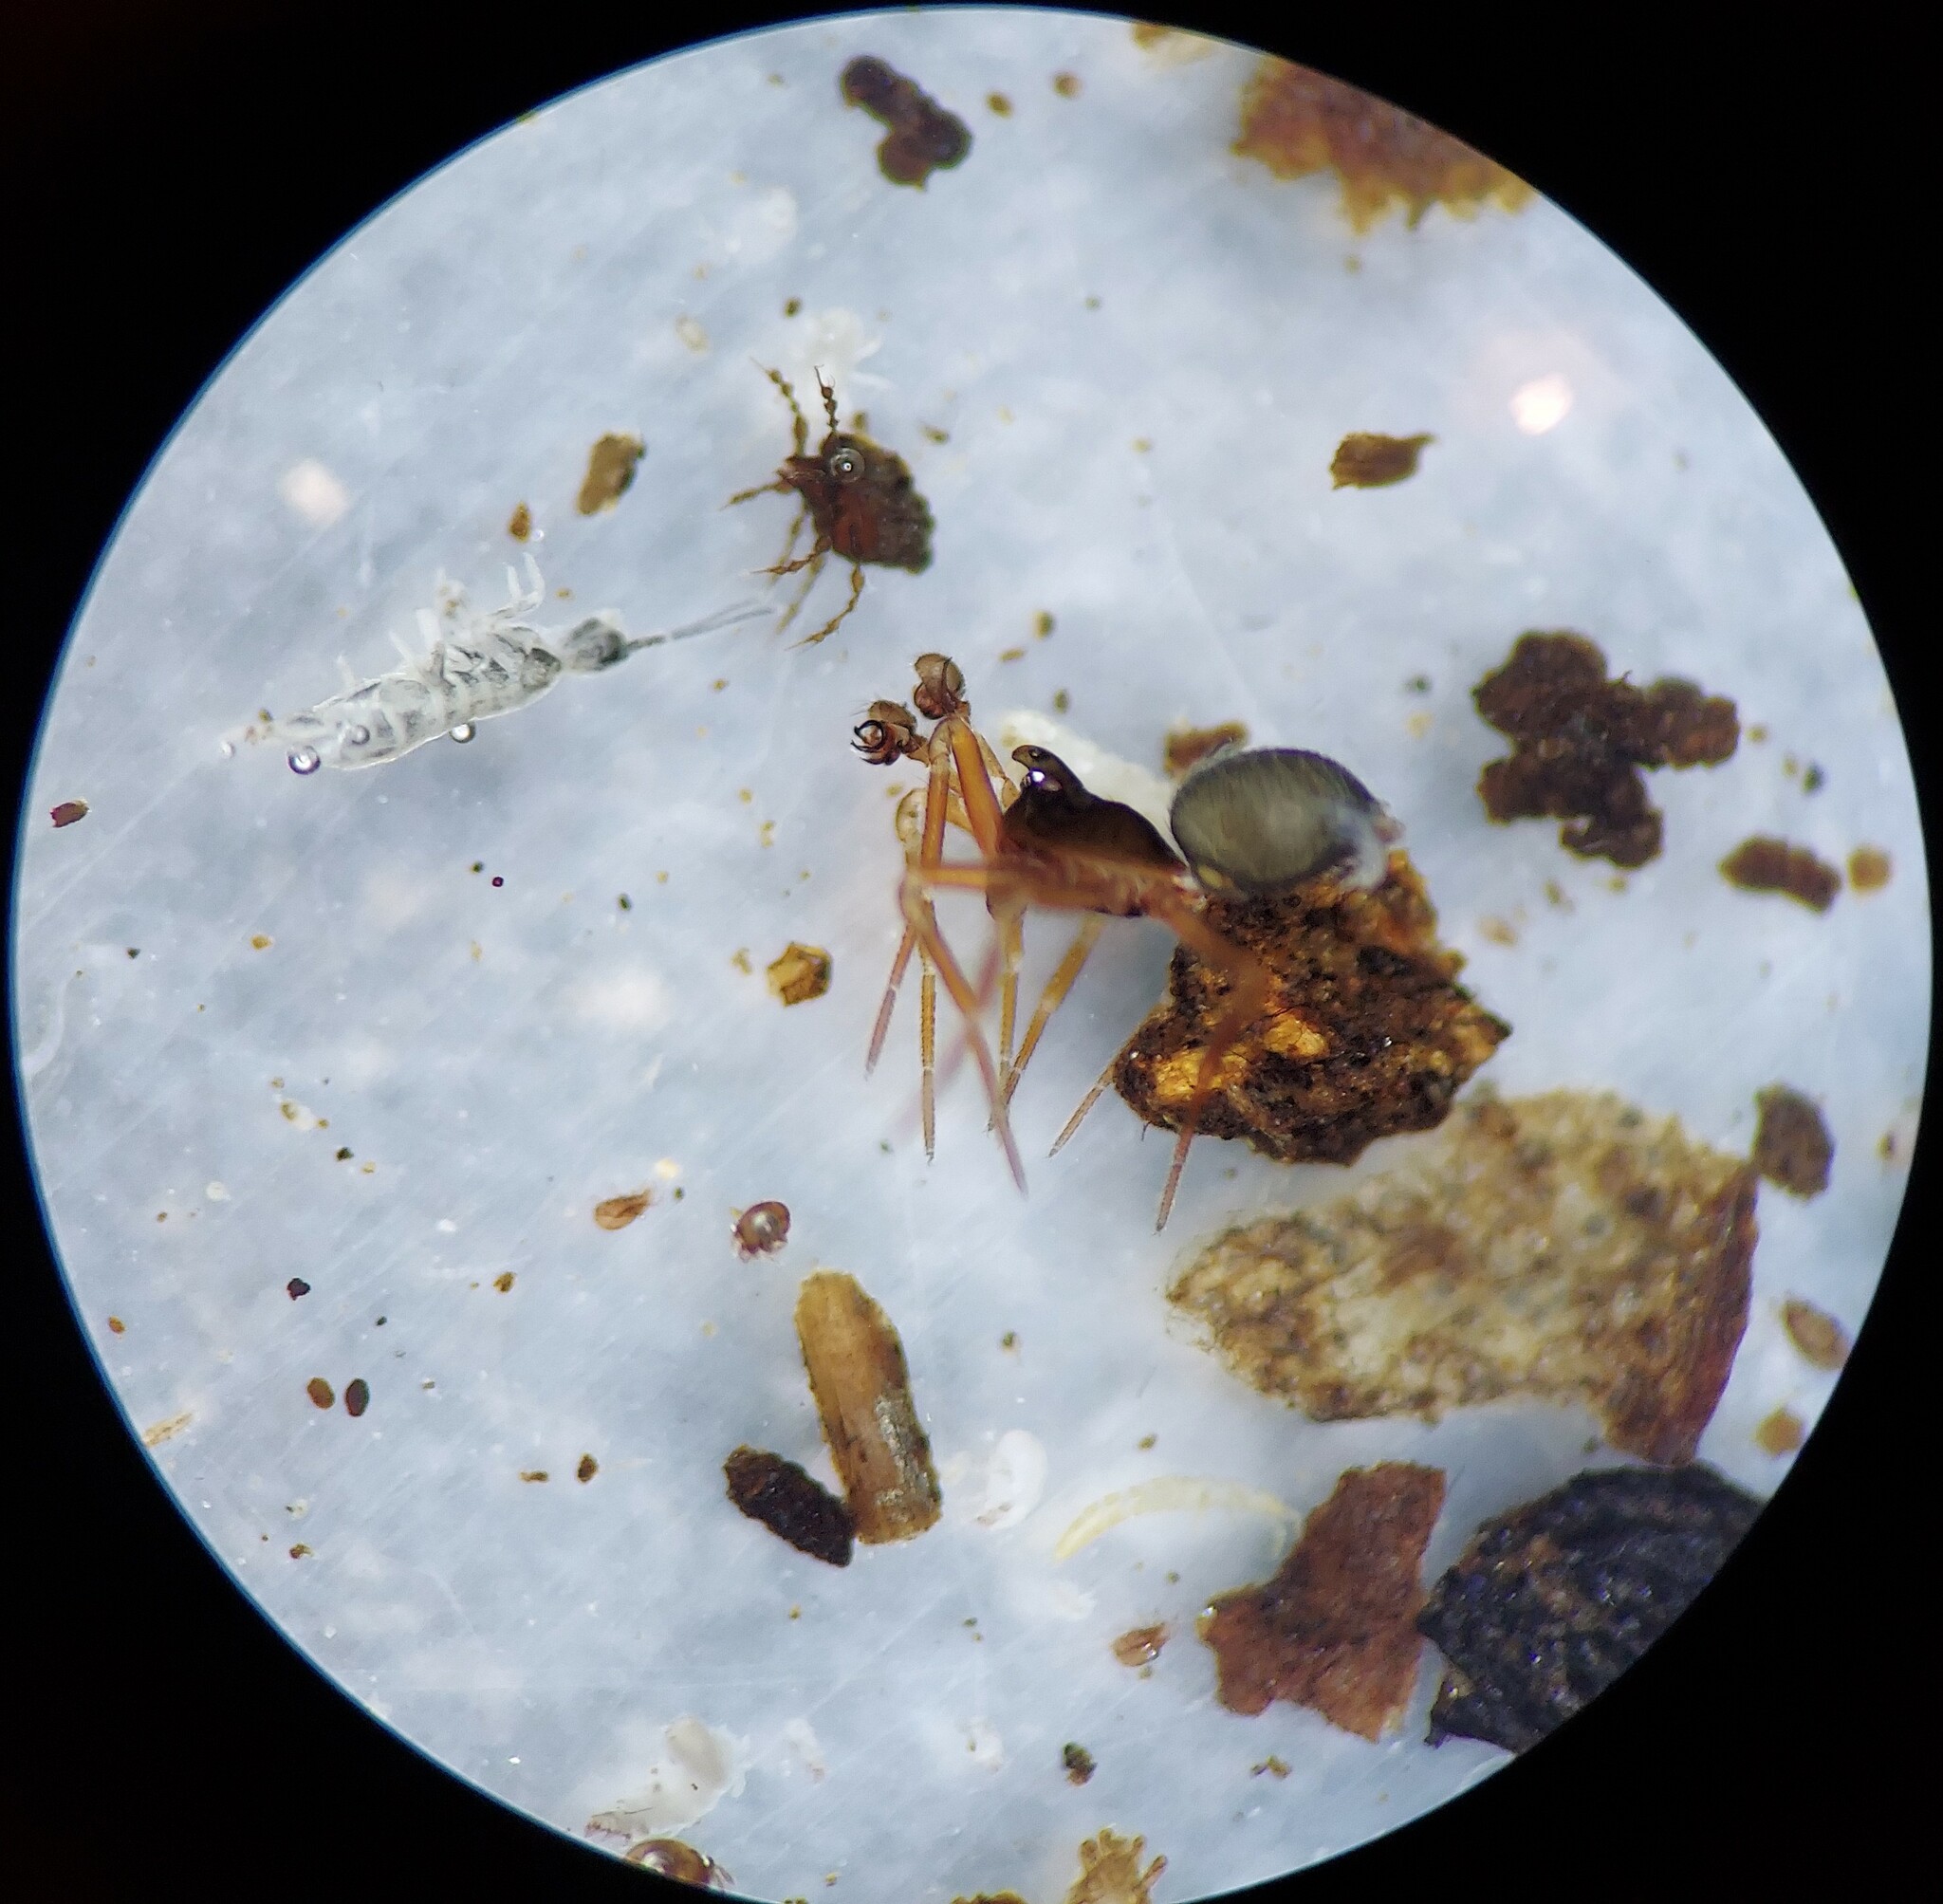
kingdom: Animalia
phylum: Arthropoda
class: Arachnida
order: Araneae
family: Linyphiidae
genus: Origanates
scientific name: Origanates rostratus
